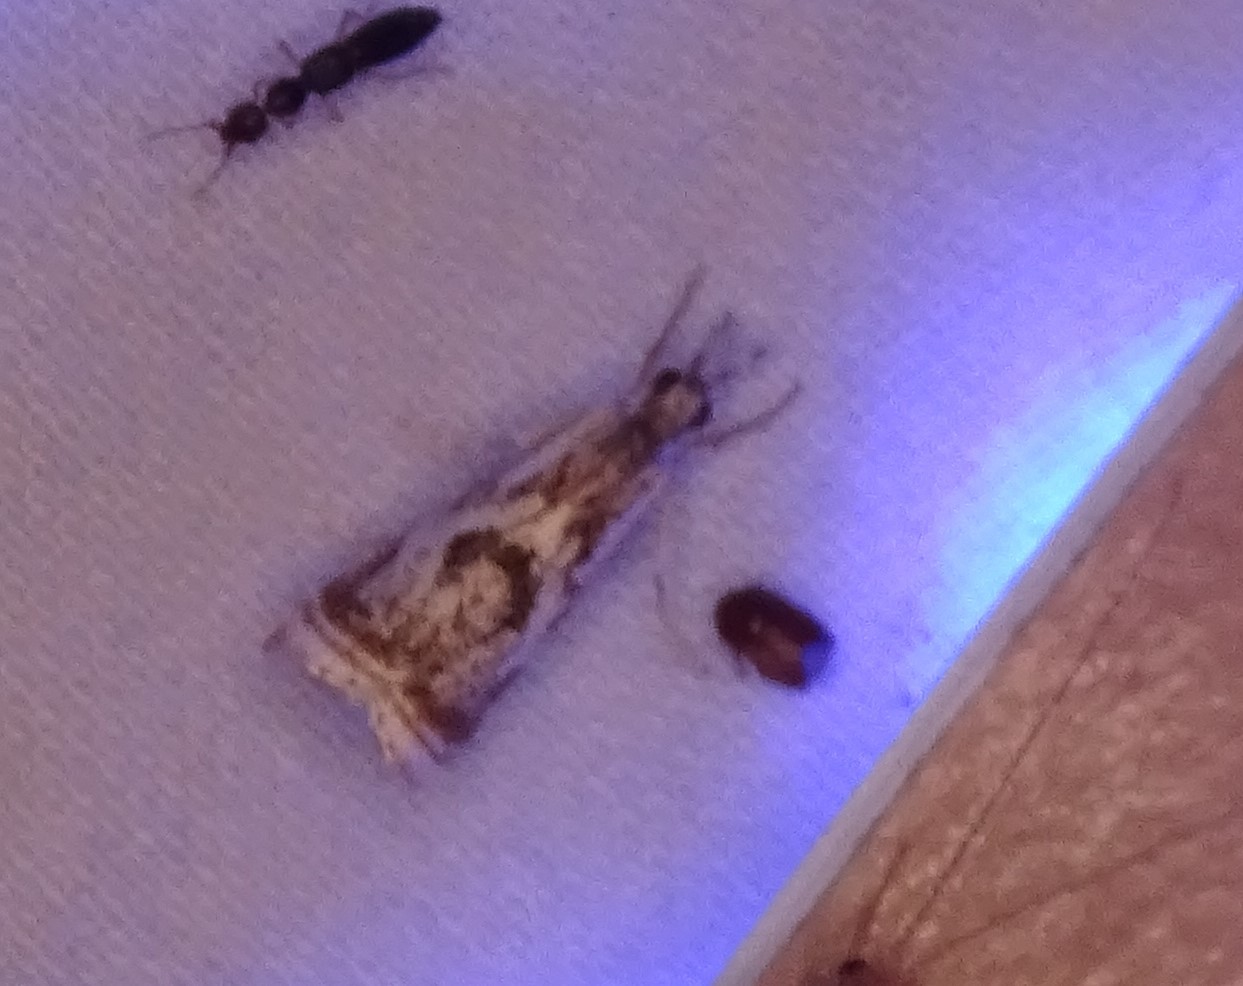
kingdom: Animalia
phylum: Arthropoda
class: Insecta
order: Lepidoptera
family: Crambidae
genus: Microcrambus
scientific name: Microcrambus elegans
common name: Elegant grass-veneer
